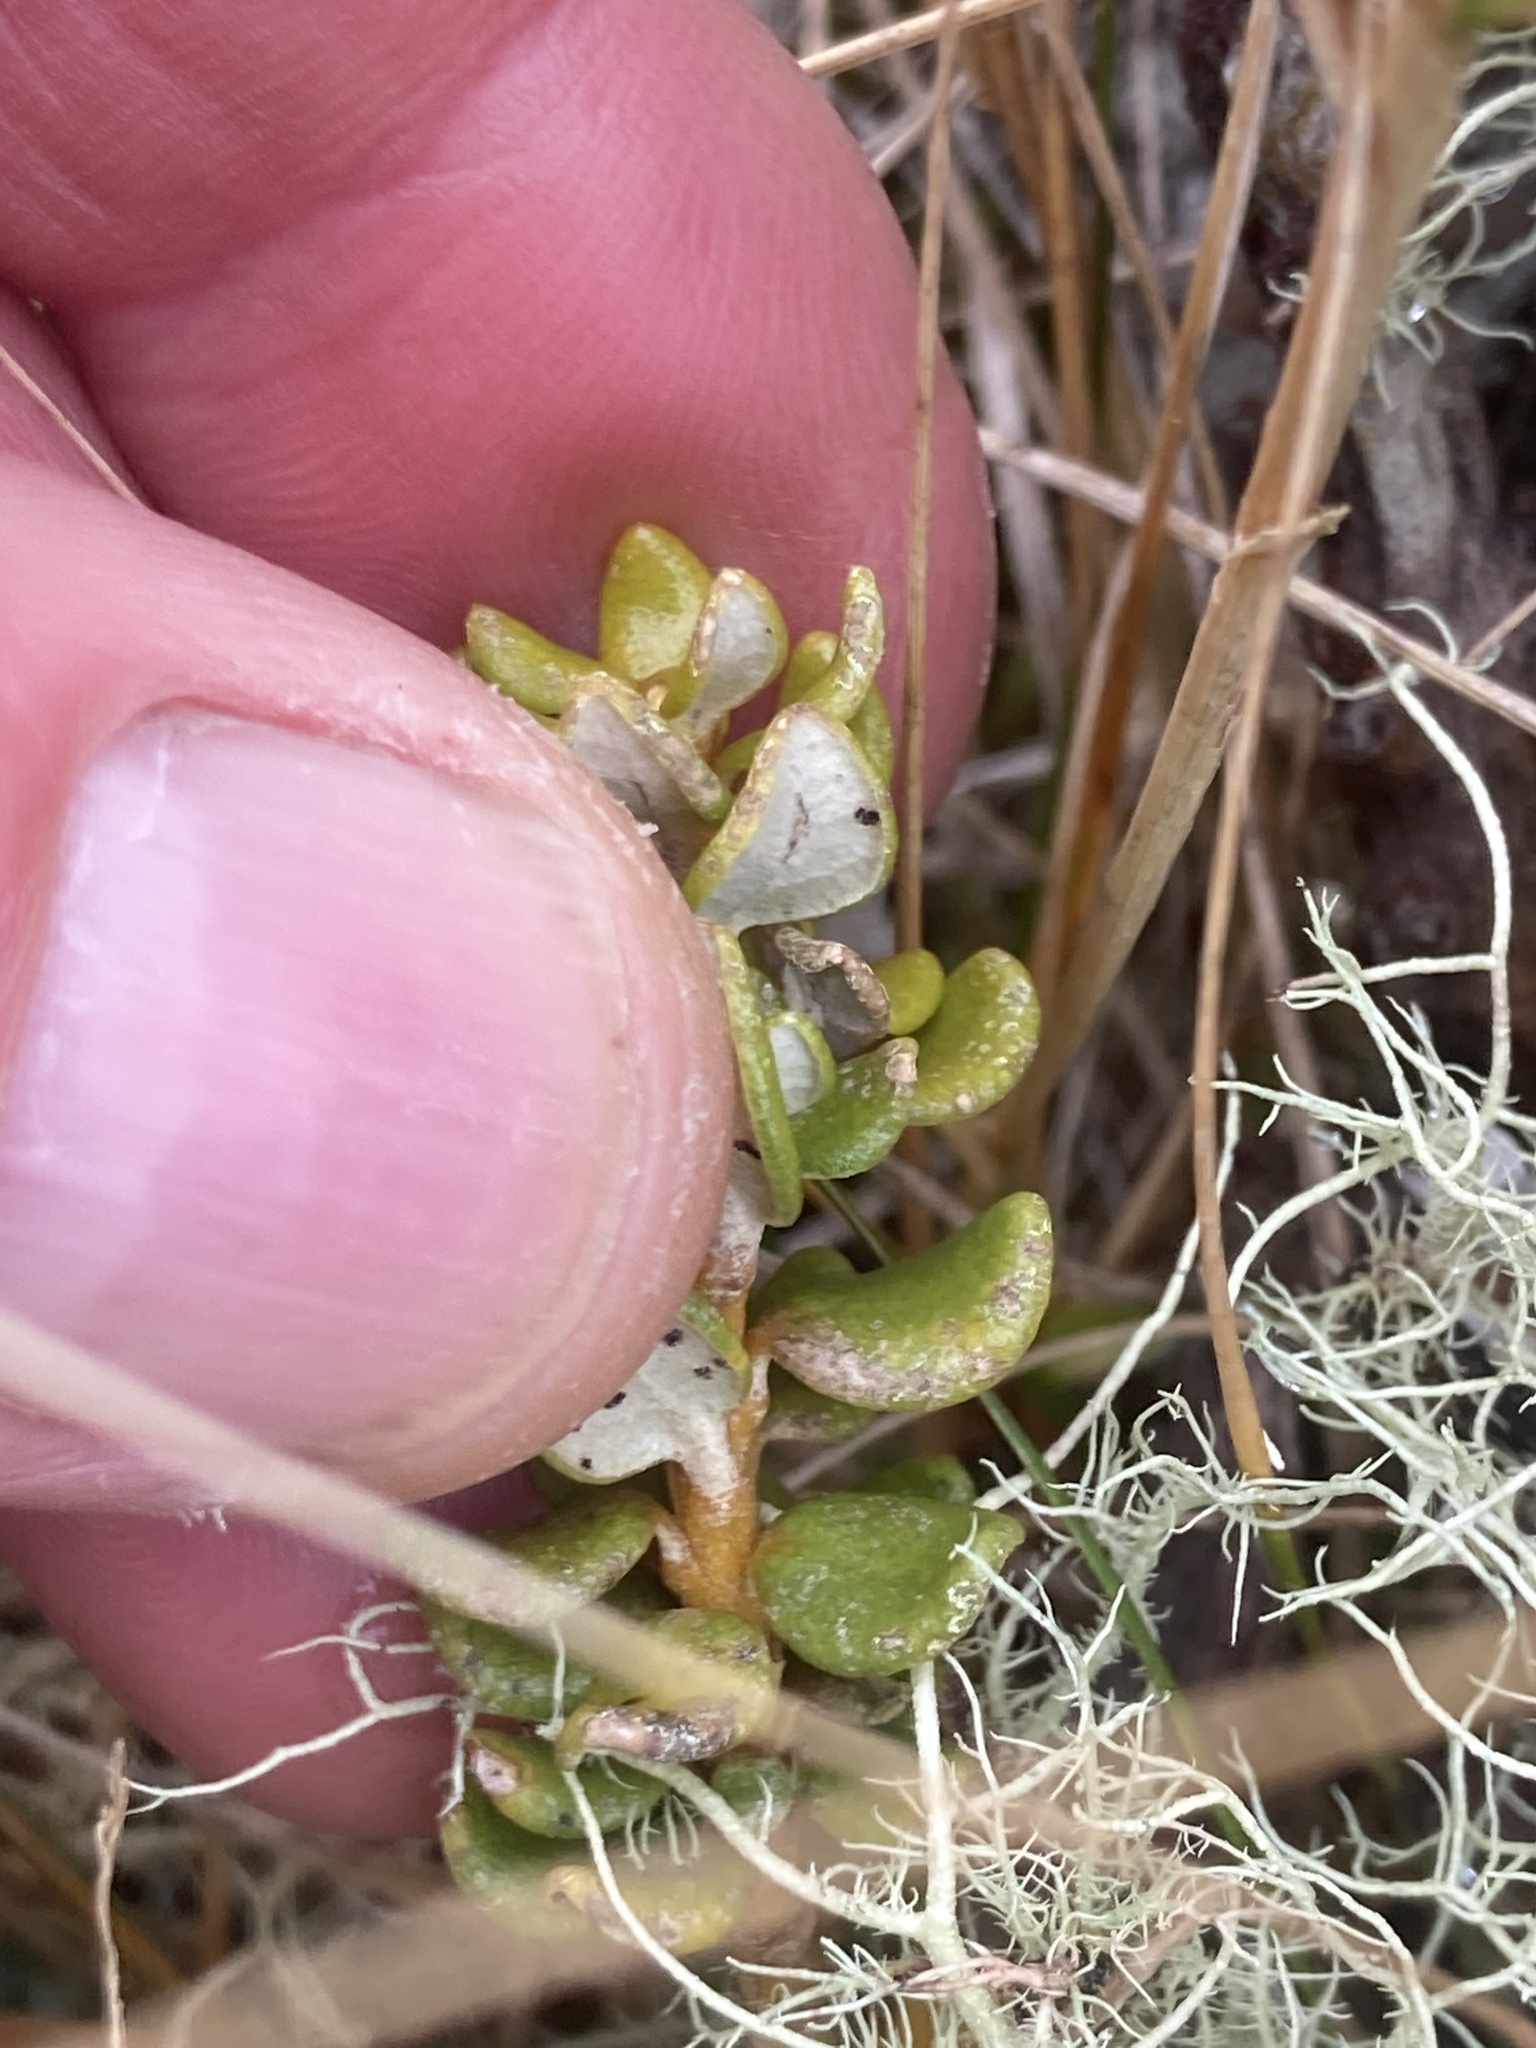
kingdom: Plantae
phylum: Tracheophyta
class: Magnoliopsida
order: Asterales
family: Asteraceae
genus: Olearia
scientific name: Olearia nummularifolia
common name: Sticky daisybush
